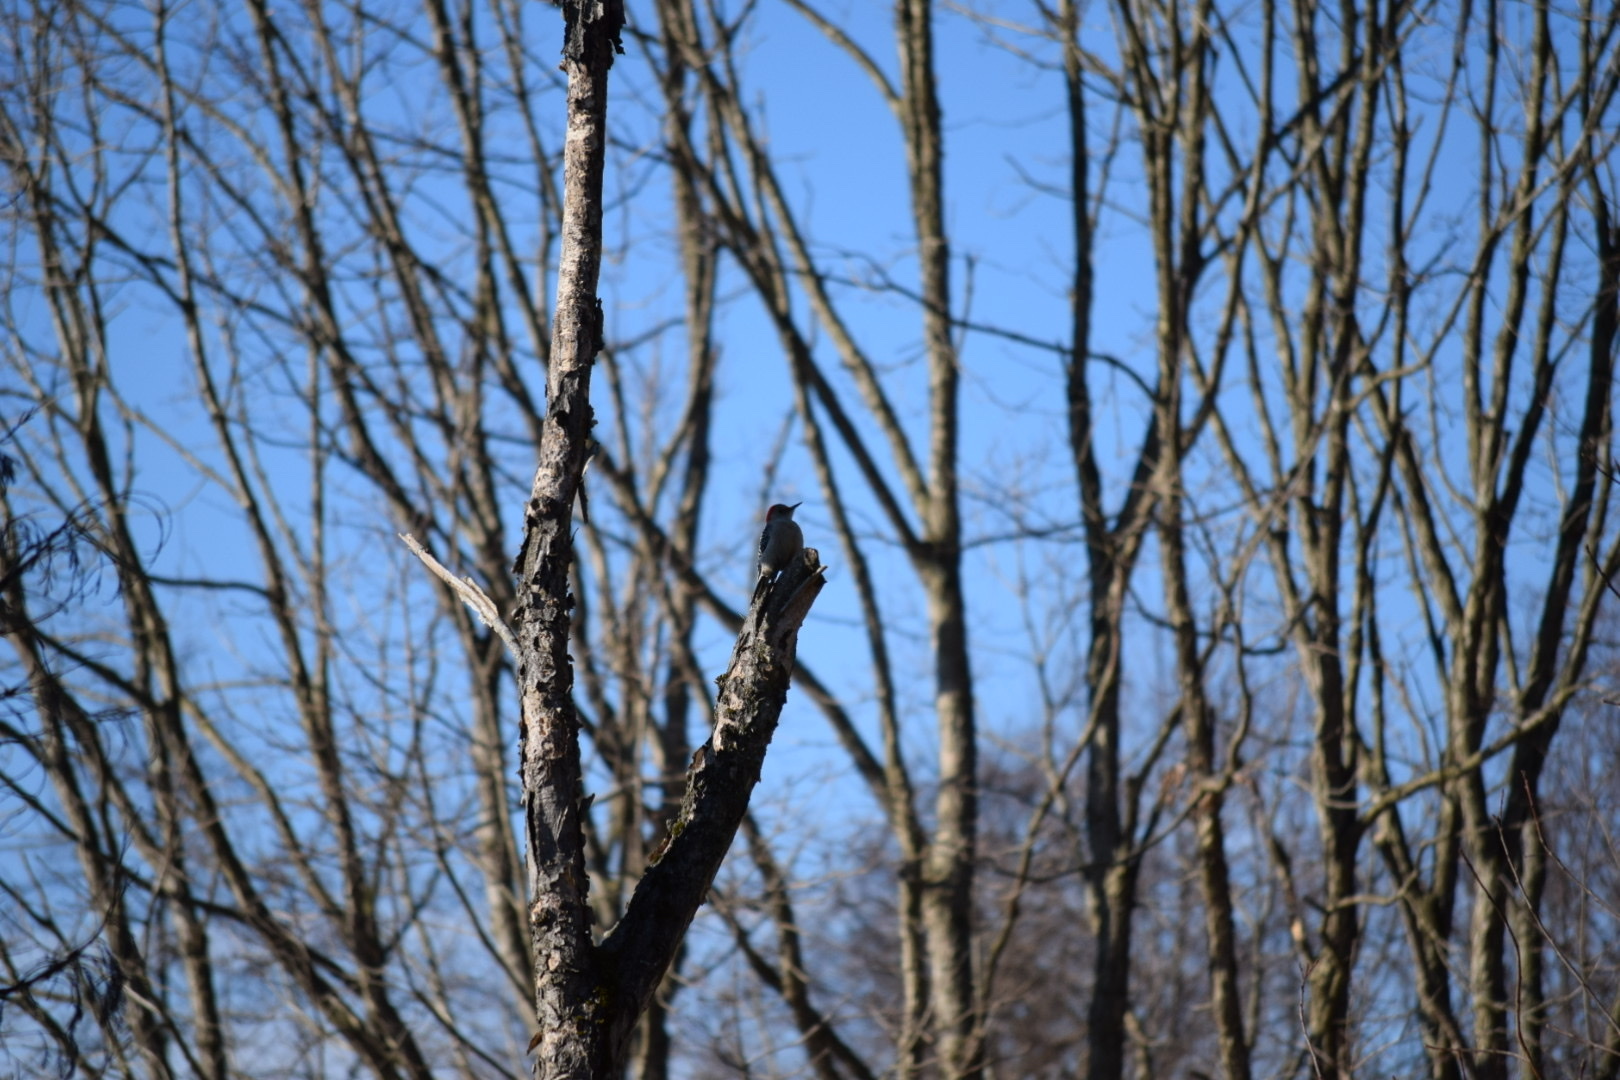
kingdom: Animalia
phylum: Chordata
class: Aves
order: Piciformes
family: Picidae
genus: Melanerpes
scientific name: Melanerpes carolinus
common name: Red-bellied woodpecker
